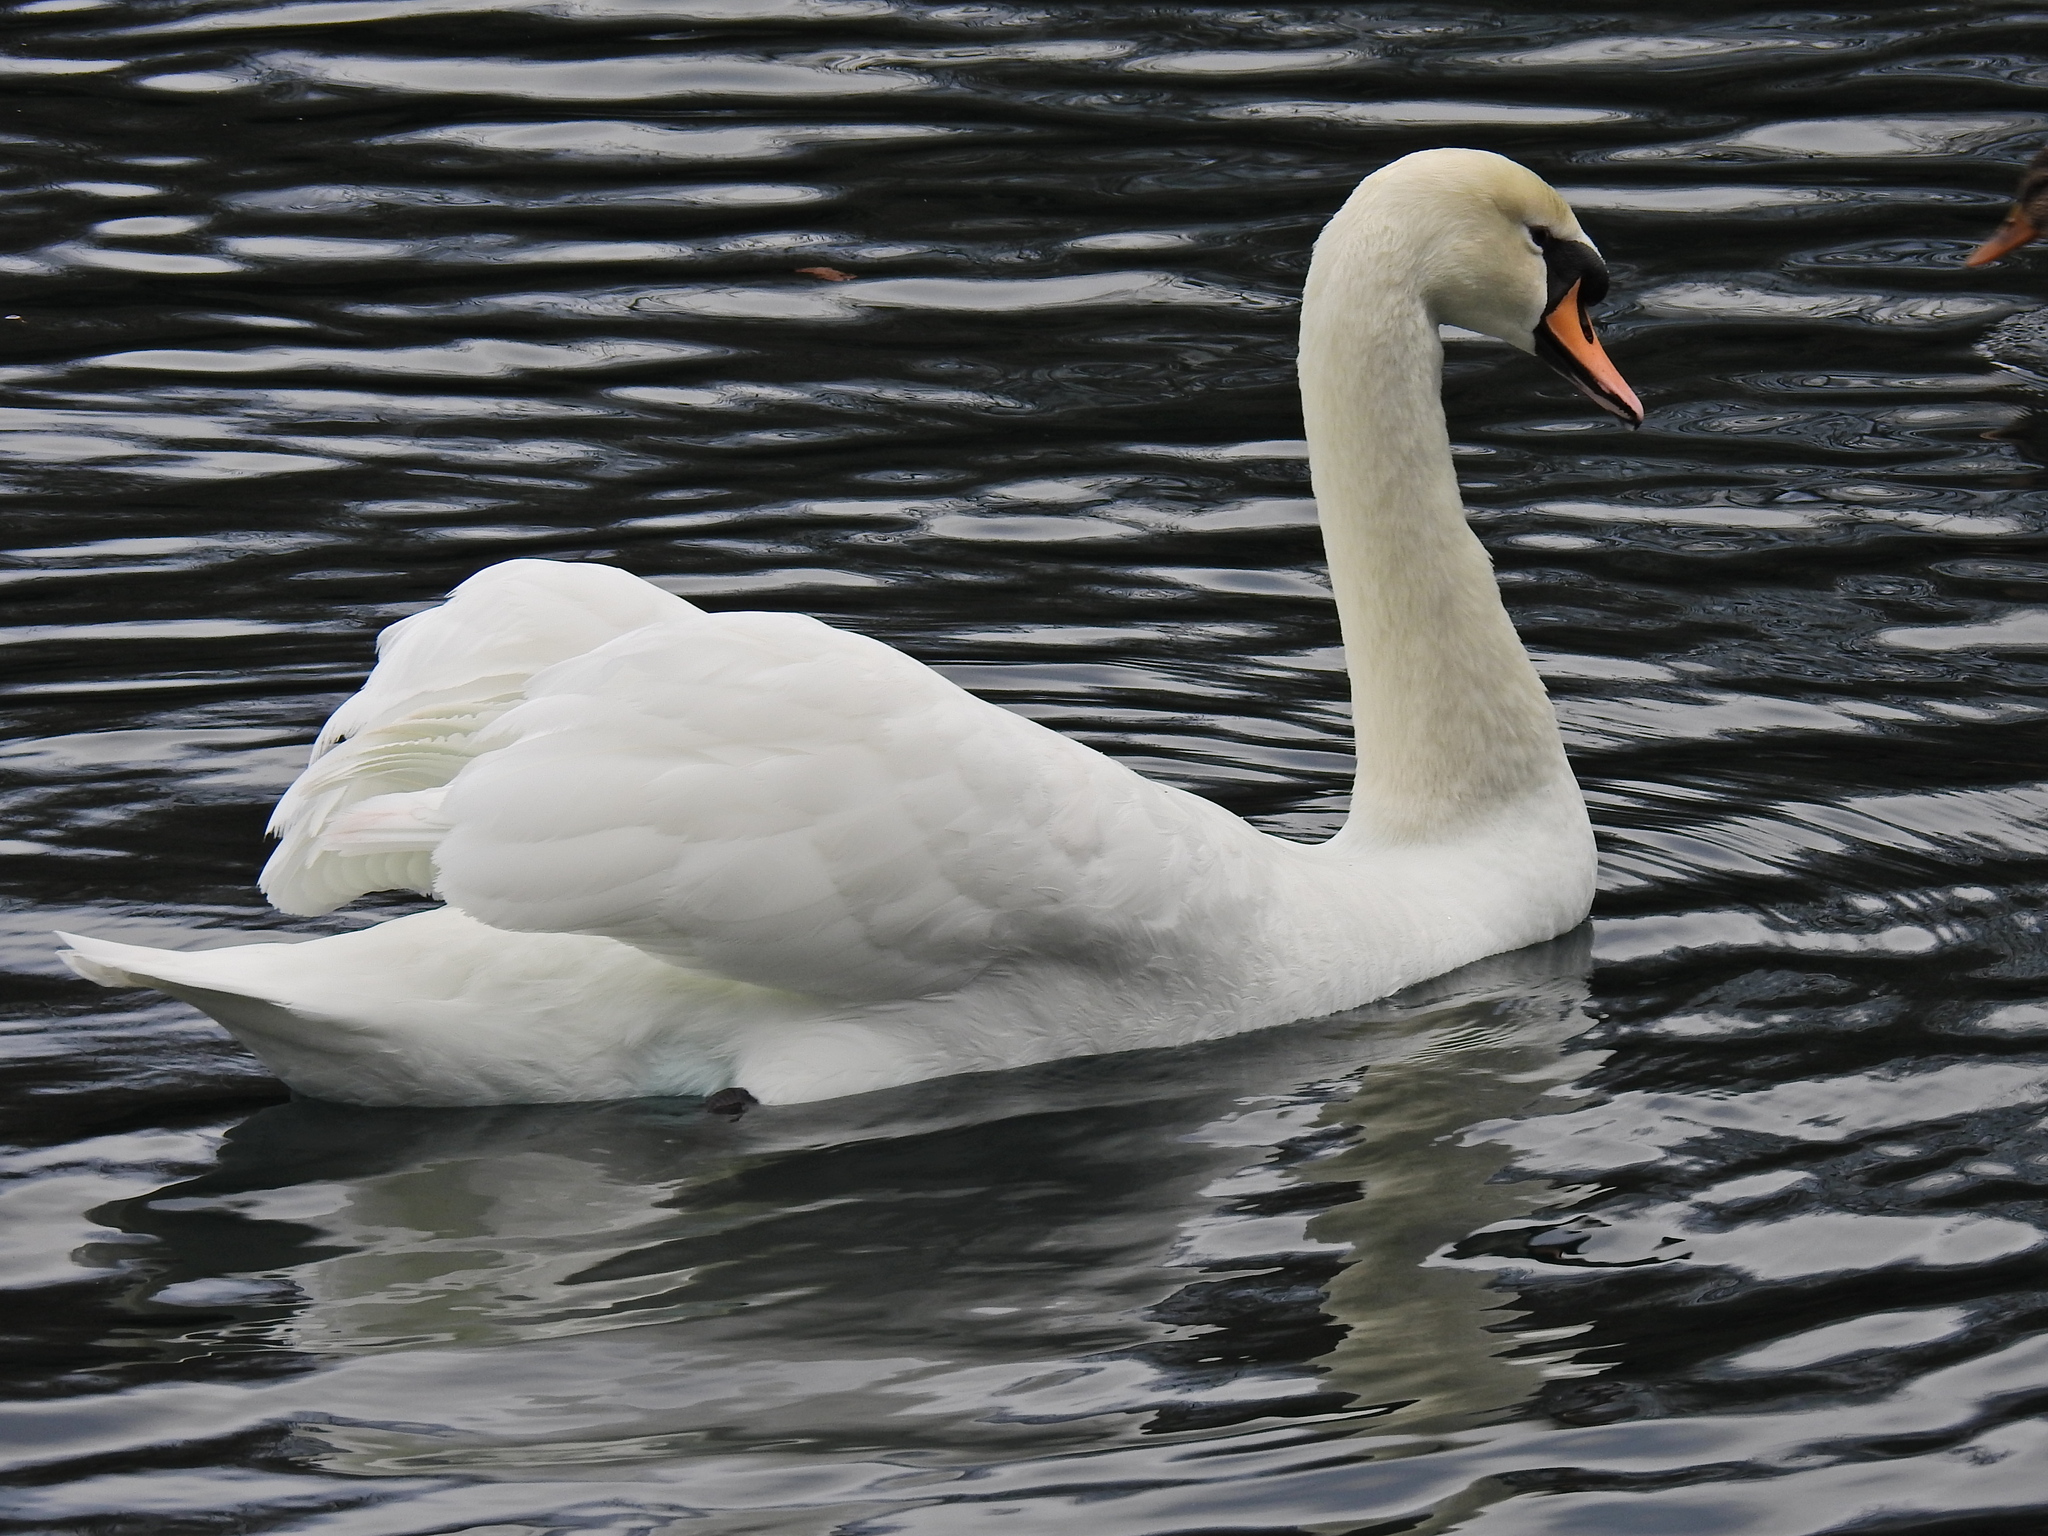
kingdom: Animalia
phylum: Chordata
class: Aves
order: Anseriformes
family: Anatidae
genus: Cygnus
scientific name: Cygnus olor
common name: Mute swan
